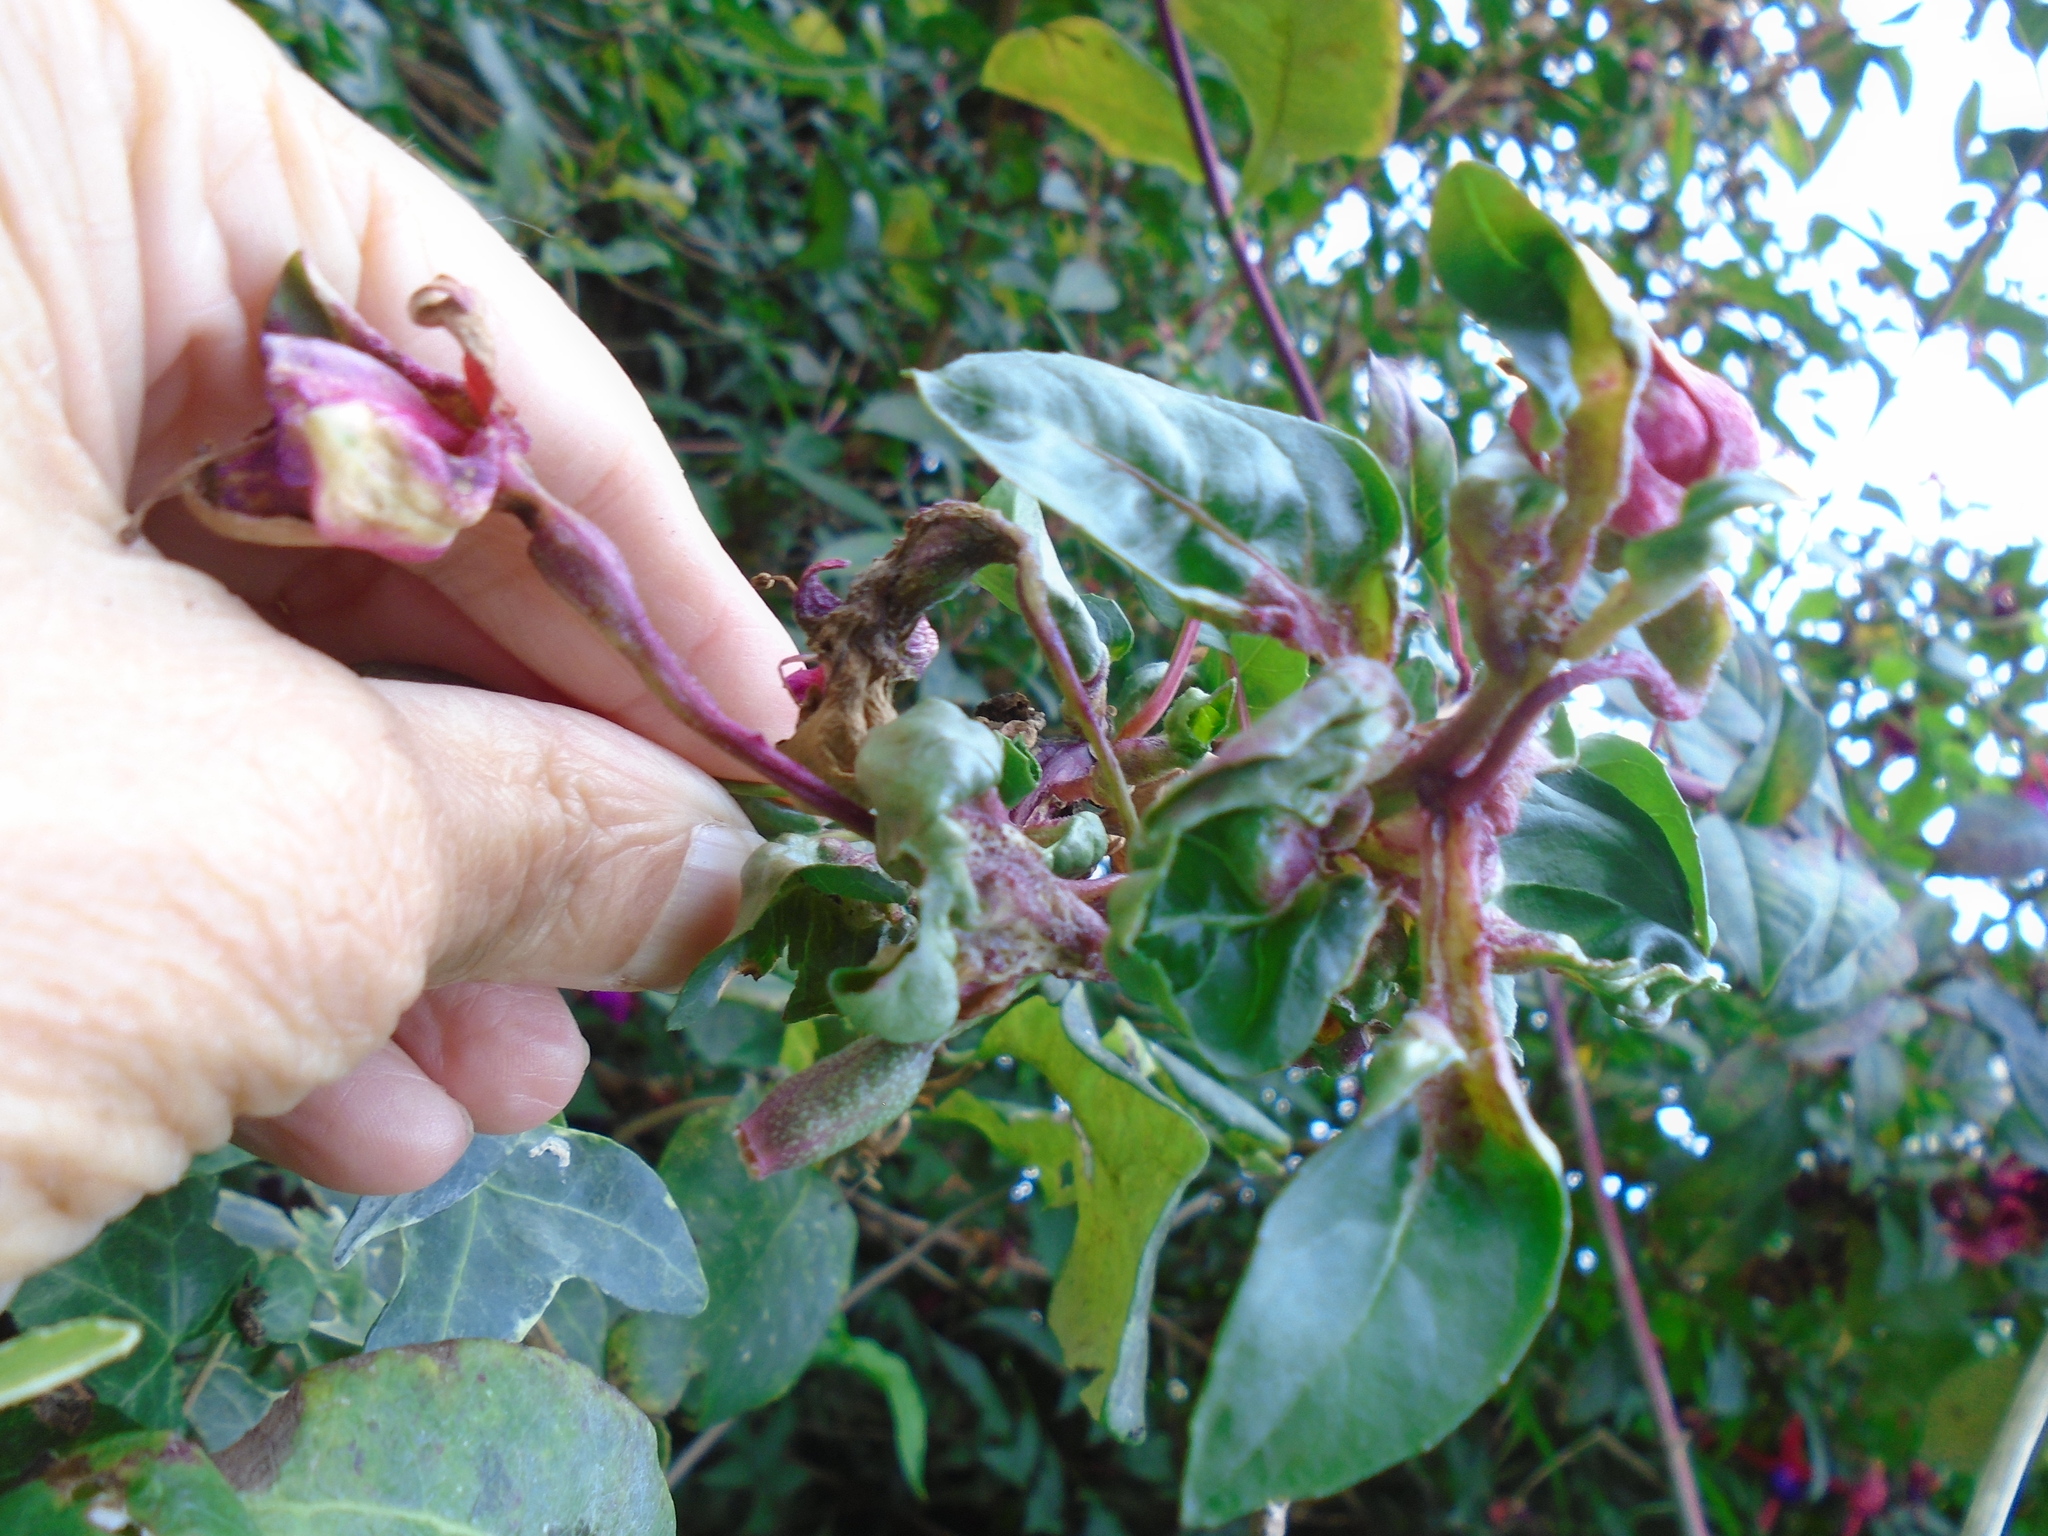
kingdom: Animalia
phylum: Arthropoda
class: Arachnida
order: Trombidiformes
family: Eriophyidae
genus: Aculops
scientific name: Aculops fuchsiae
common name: Fuchsia gall mite
